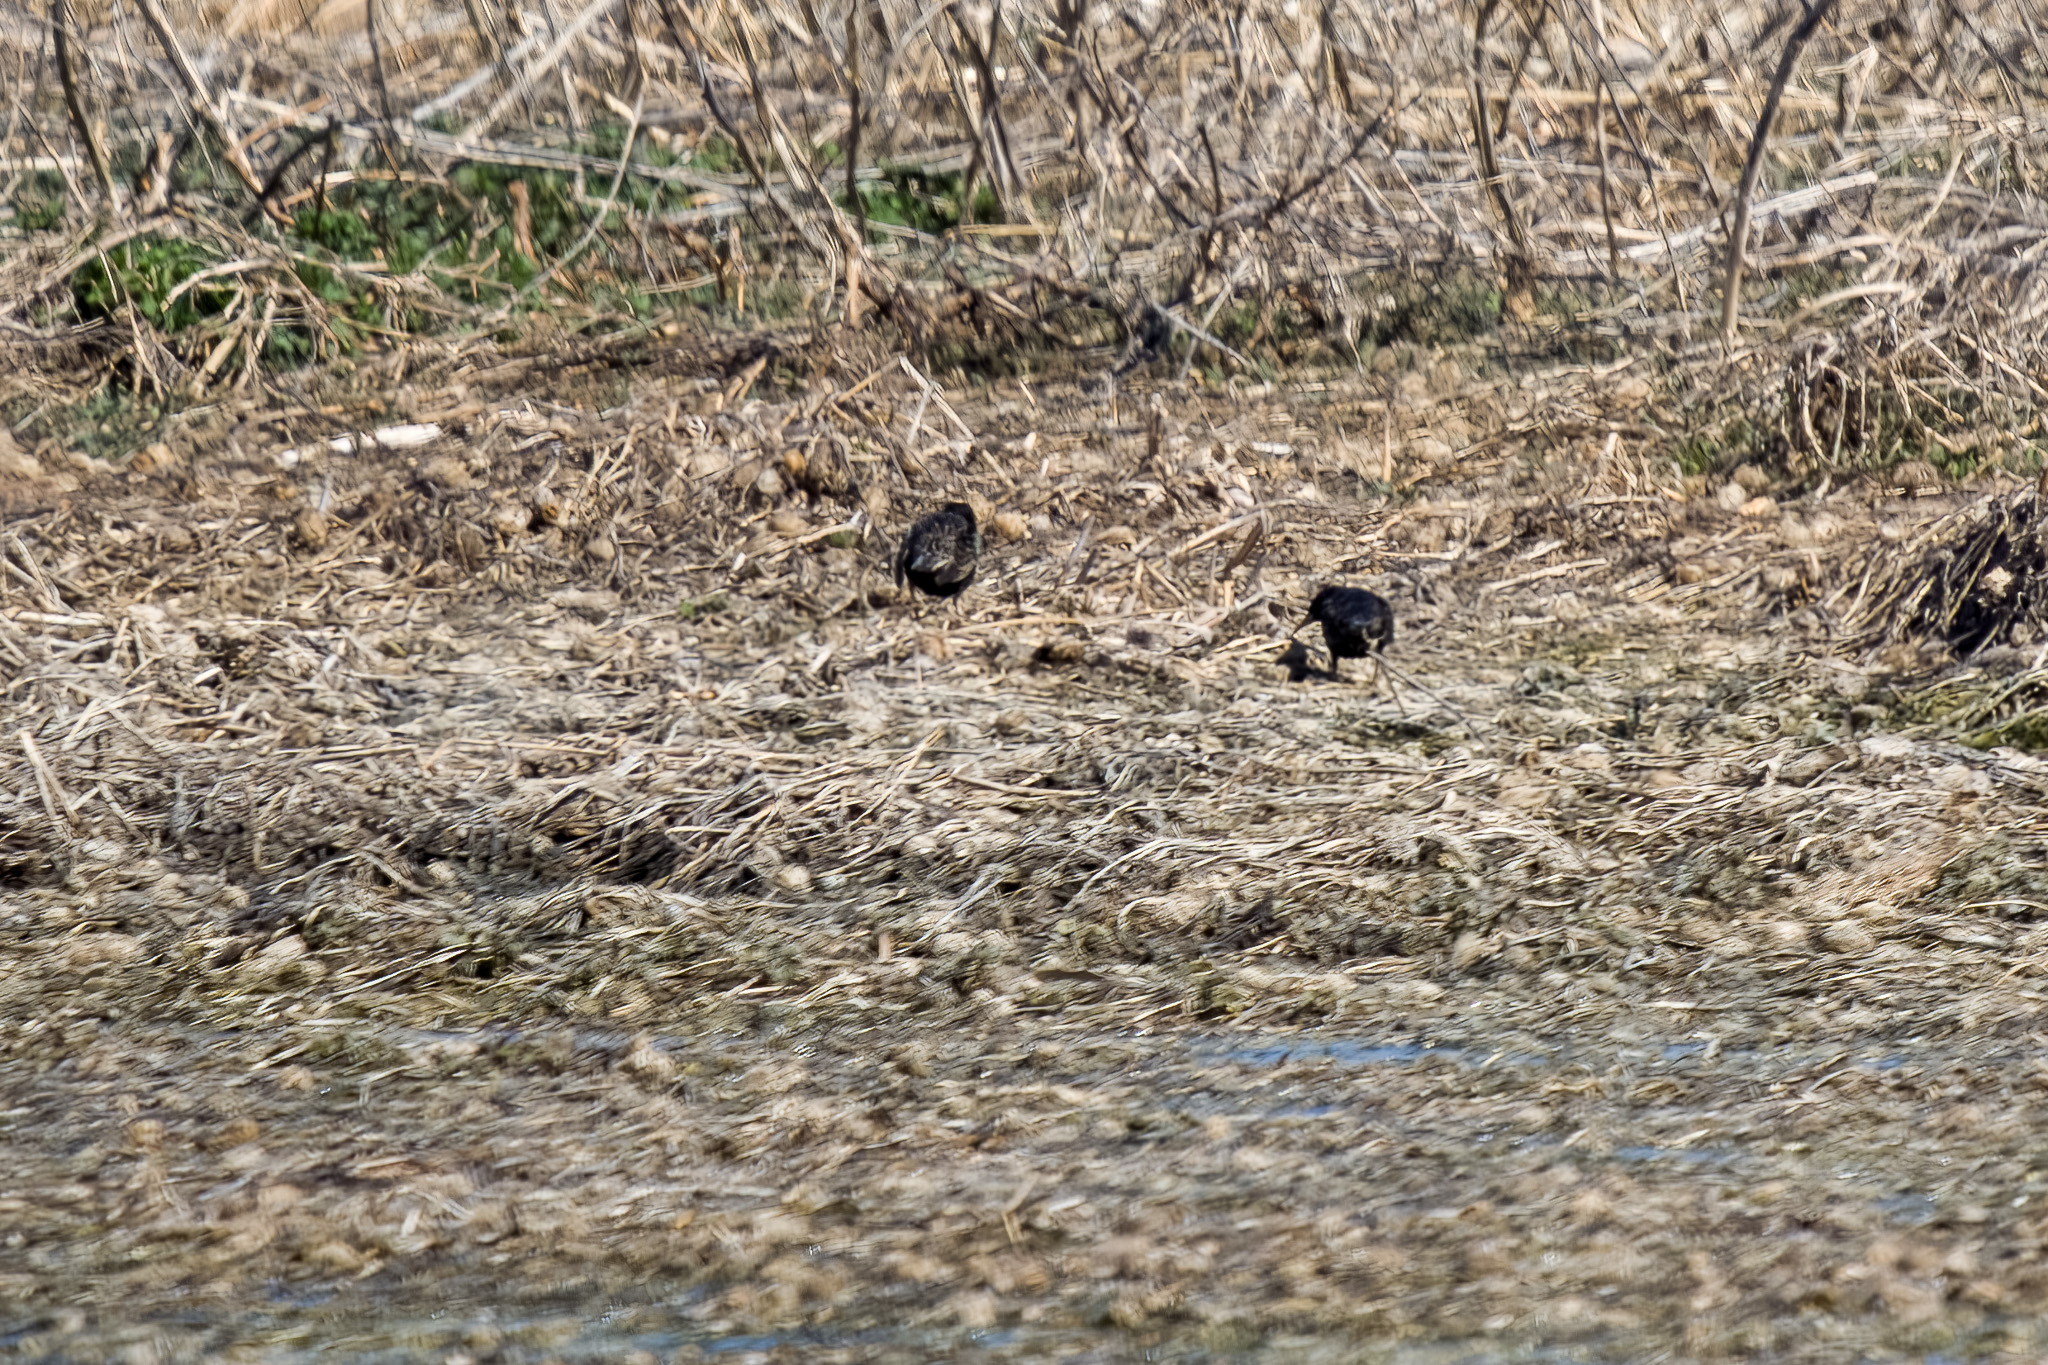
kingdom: Animalia
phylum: Chordata
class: Aves
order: Passeriformes
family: Sturnidae
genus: Sturnus
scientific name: Sturnus vulgaris
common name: Common starling
